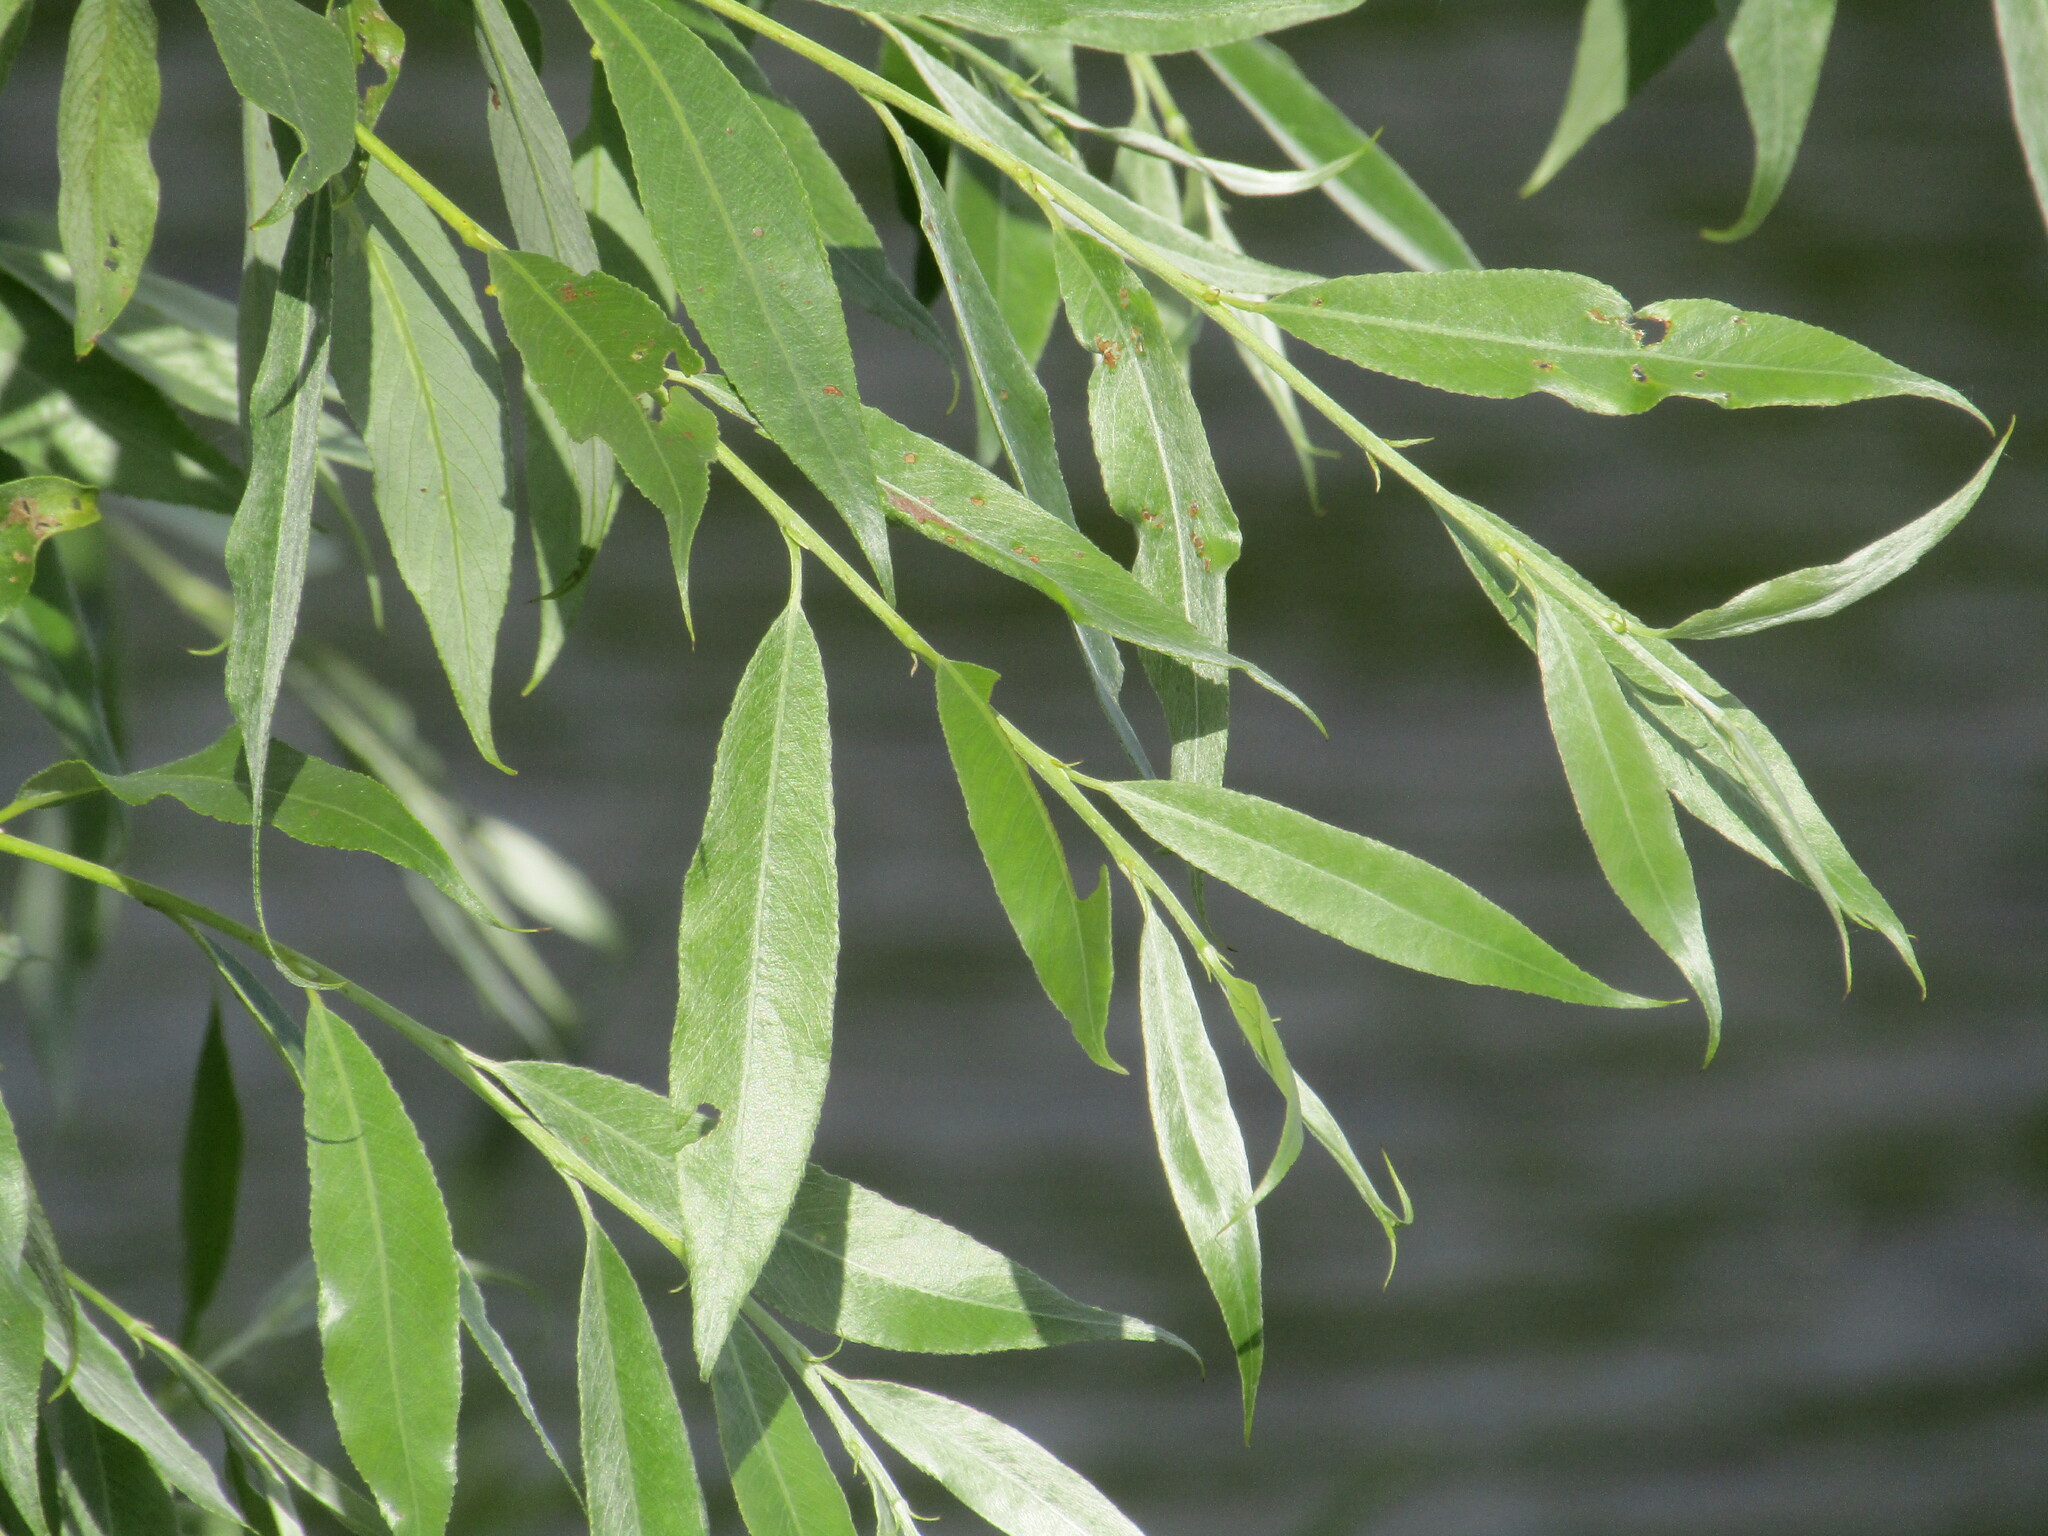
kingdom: Plantae
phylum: Tracheophyta
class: Magnoliopsida
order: Malpighiales
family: Salicaceae
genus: Salix
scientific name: Salix alba
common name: White willow
